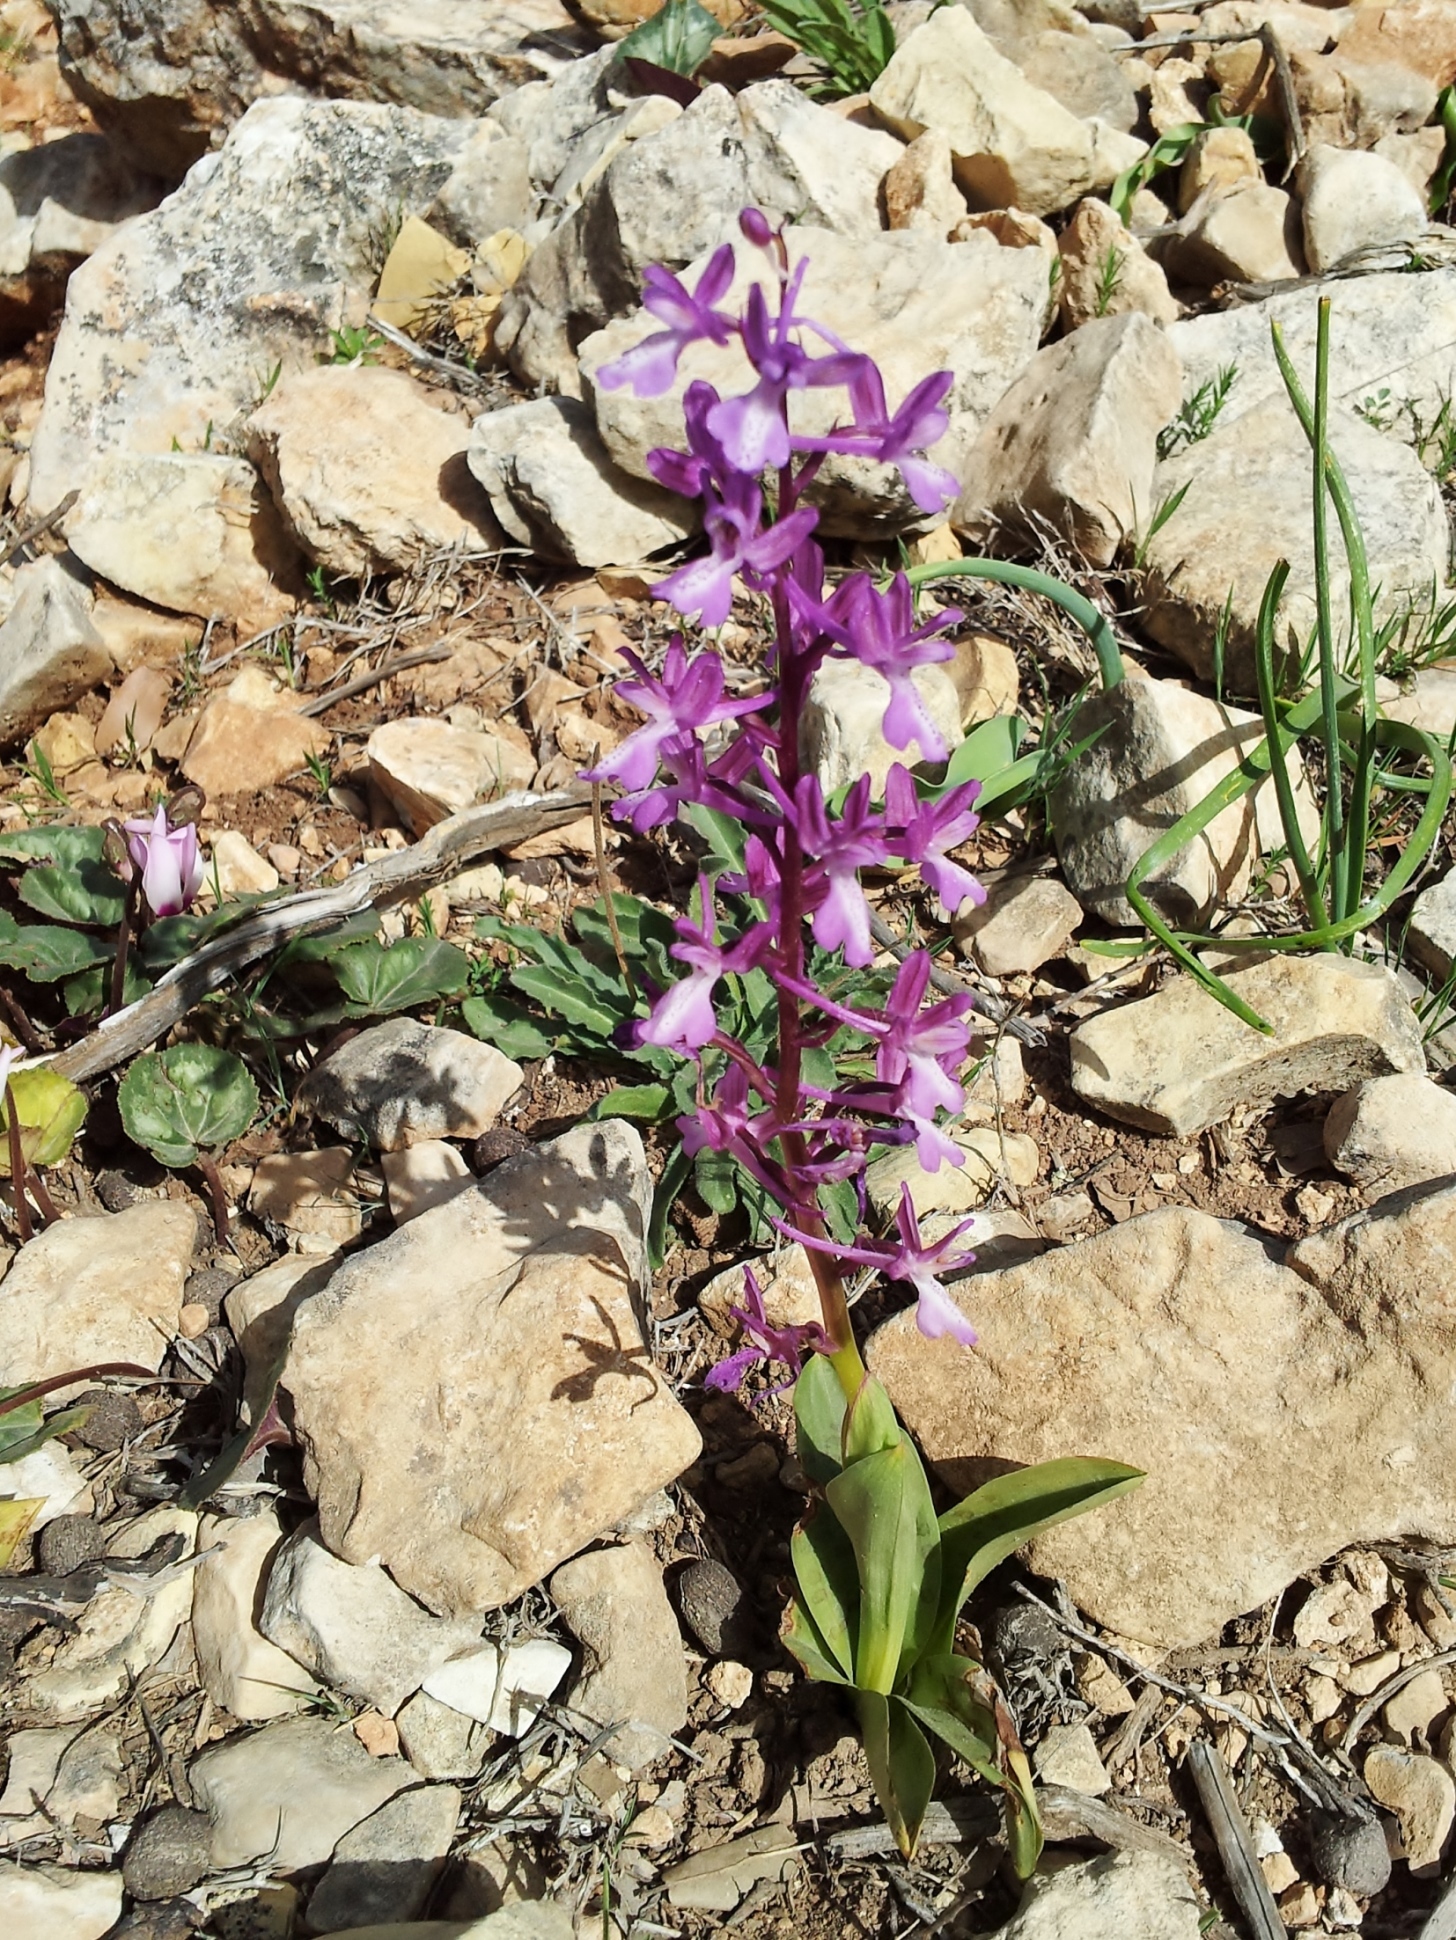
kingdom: Plantae
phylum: Tracheophyta
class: Liliopsida
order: Asparagales
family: Orchidaceae
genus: Orchis
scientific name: Orchis anatolica
